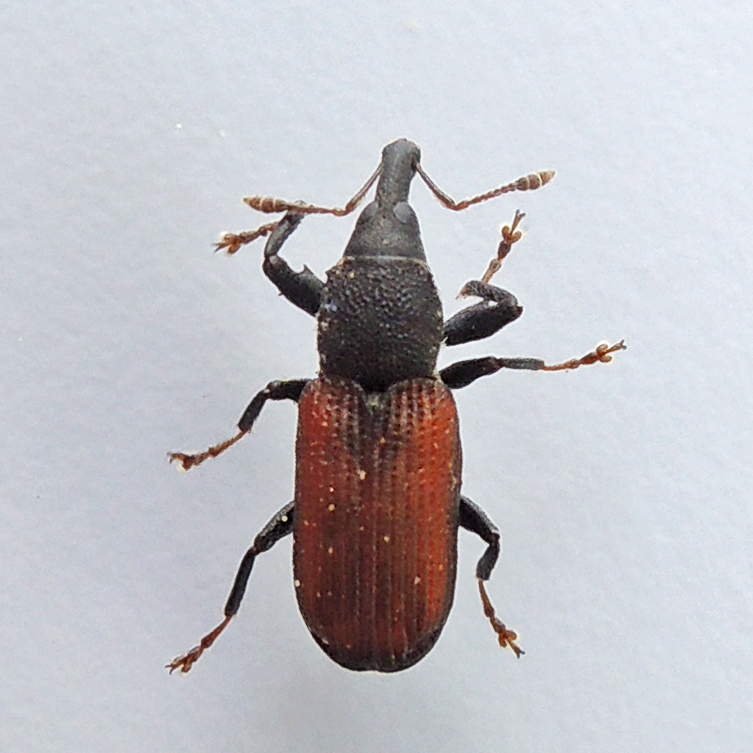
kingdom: Animalia
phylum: Arthropoda
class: Insecta
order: Coleoptera
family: Curculionidae
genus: Magdalis
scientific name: Magdalis armicollis
